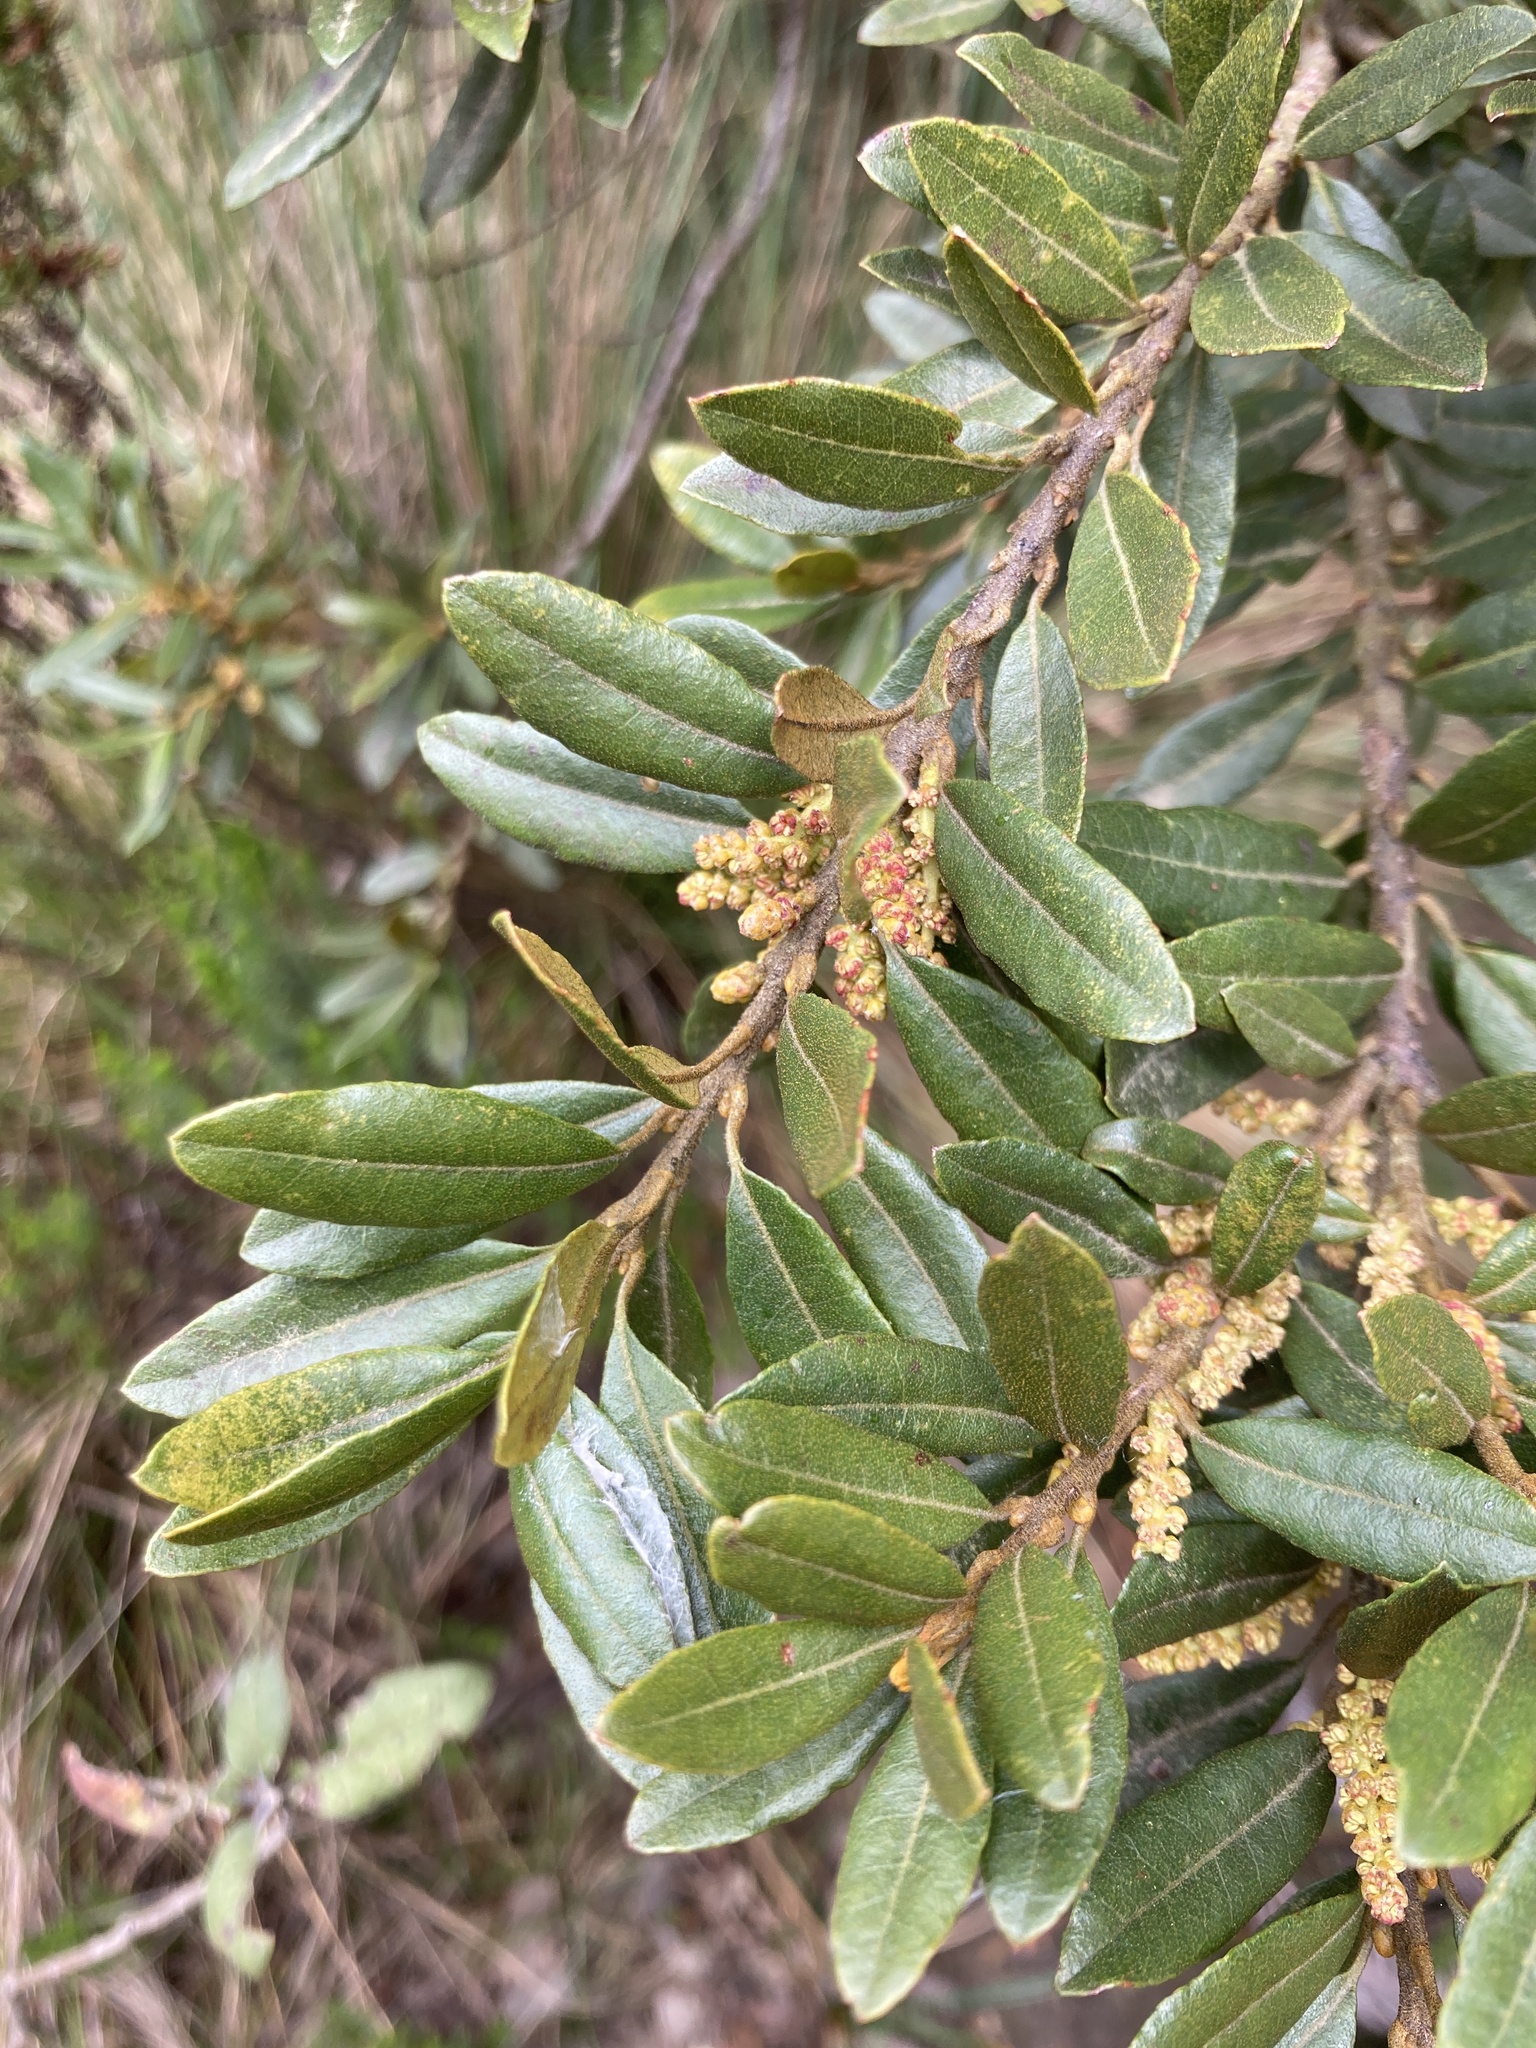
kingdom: Plantae
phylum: Tracheophyta
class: Magnoliopsida
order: Fagales
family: Myricaceae
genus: Morella
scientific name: Morella parvifolia
